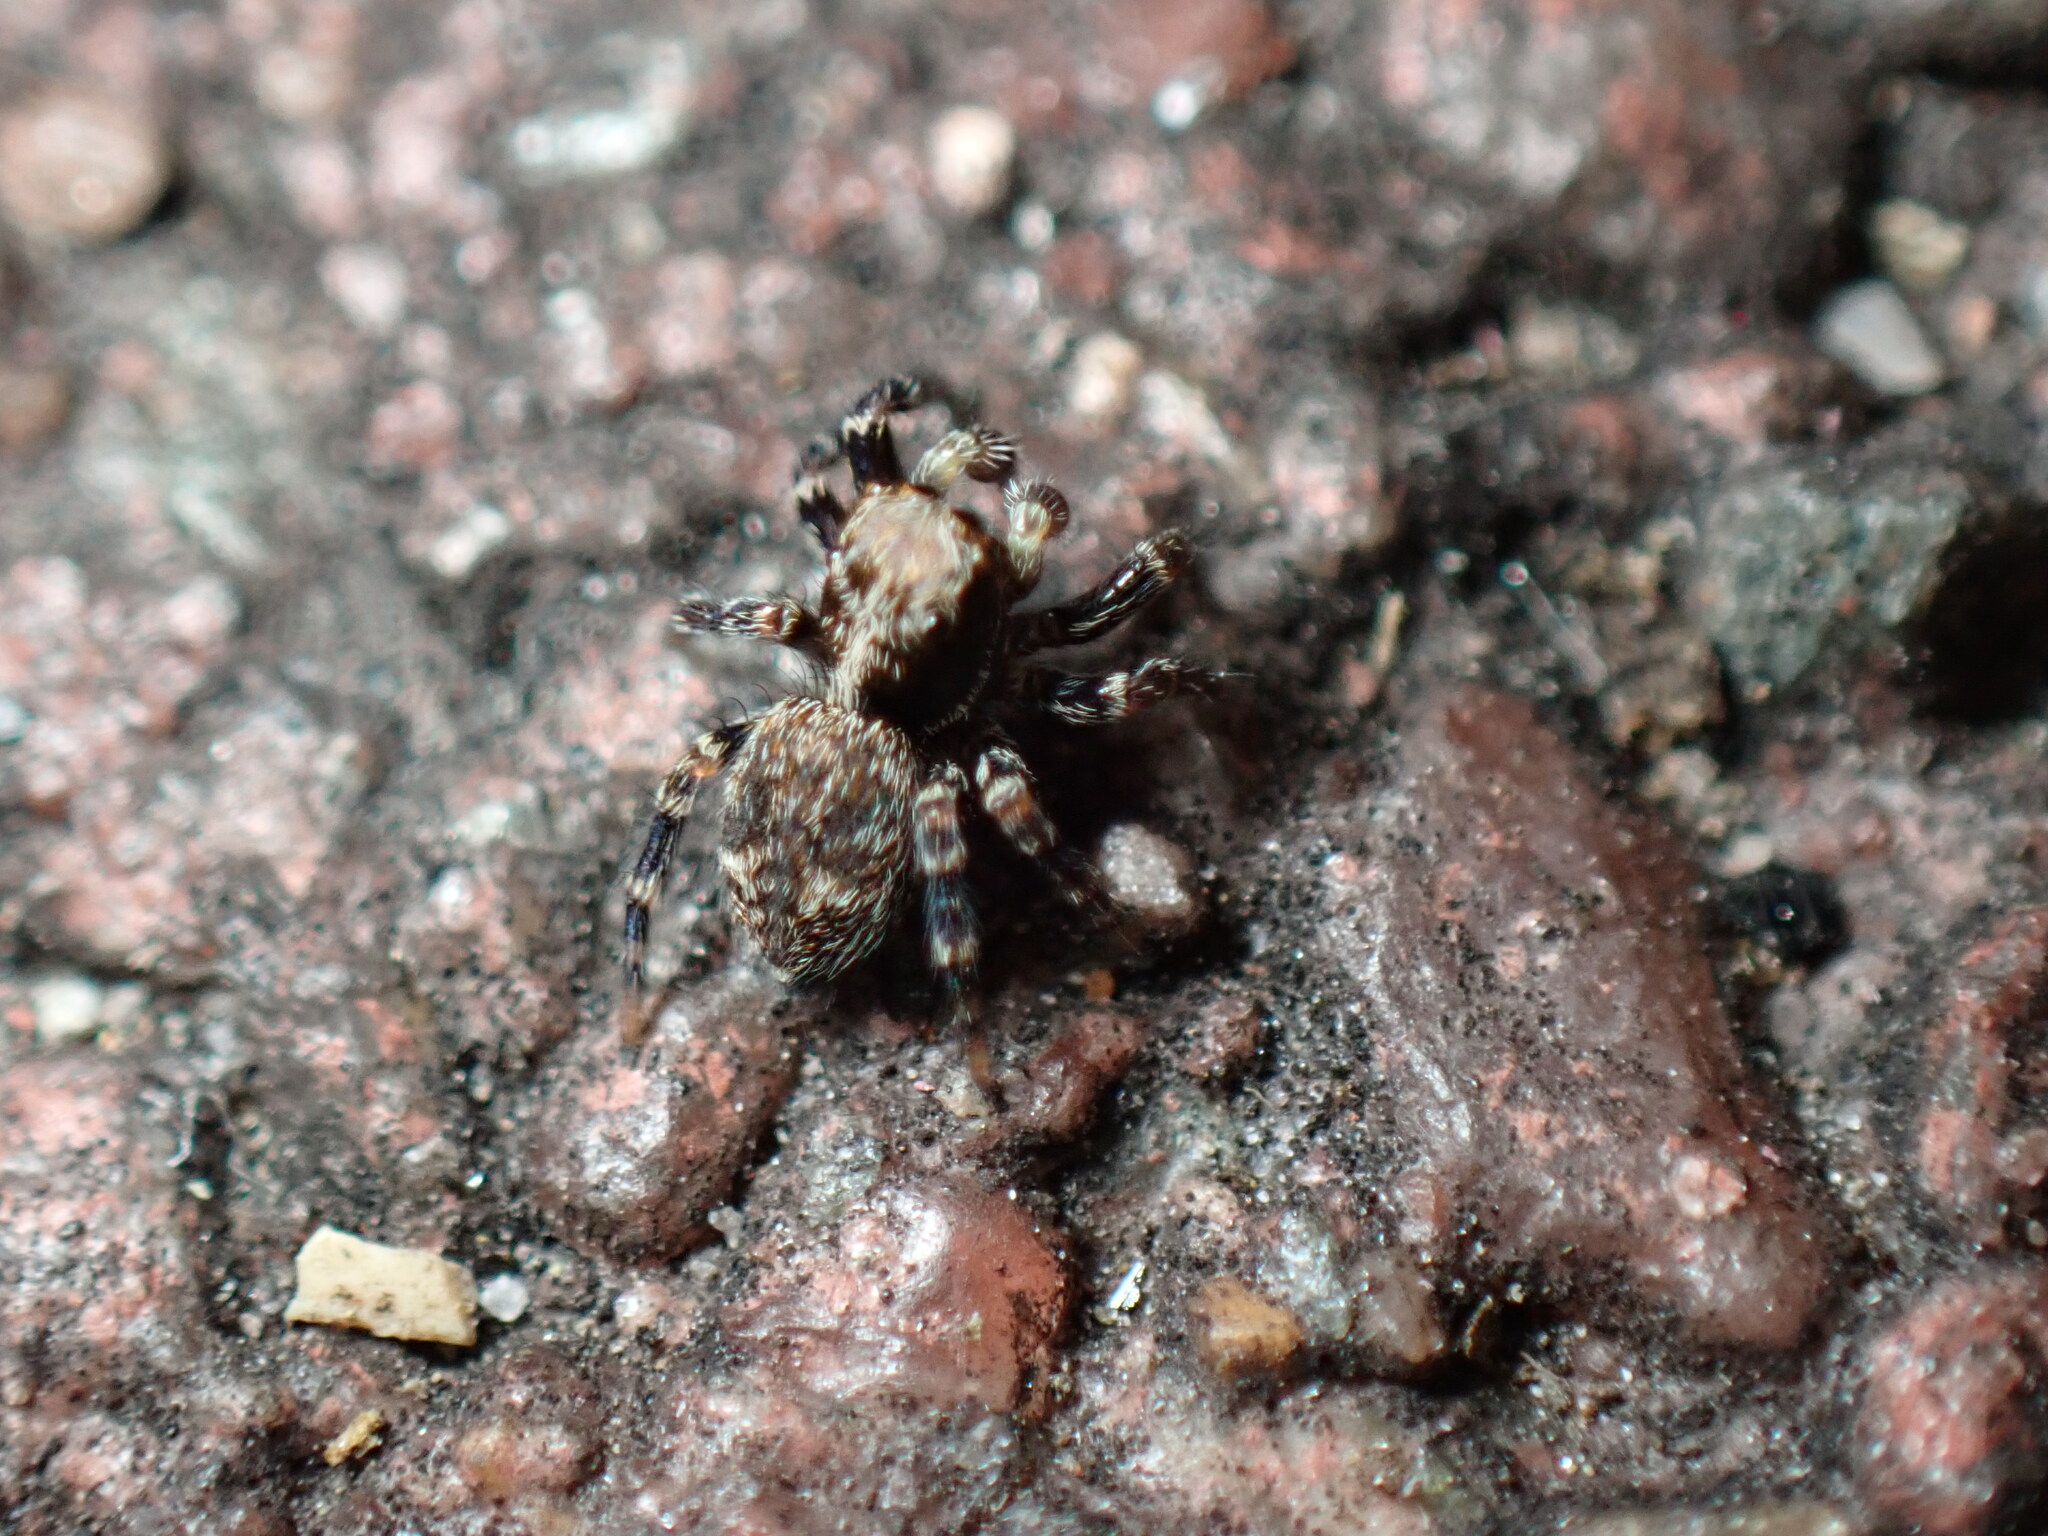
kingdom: Animalia
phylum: Arthropoda
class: Arachnida
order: Araneae
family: Salticidae
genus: Pseudeuophrys
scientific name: Pseudeuophrys erratica
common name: Jumping spider
